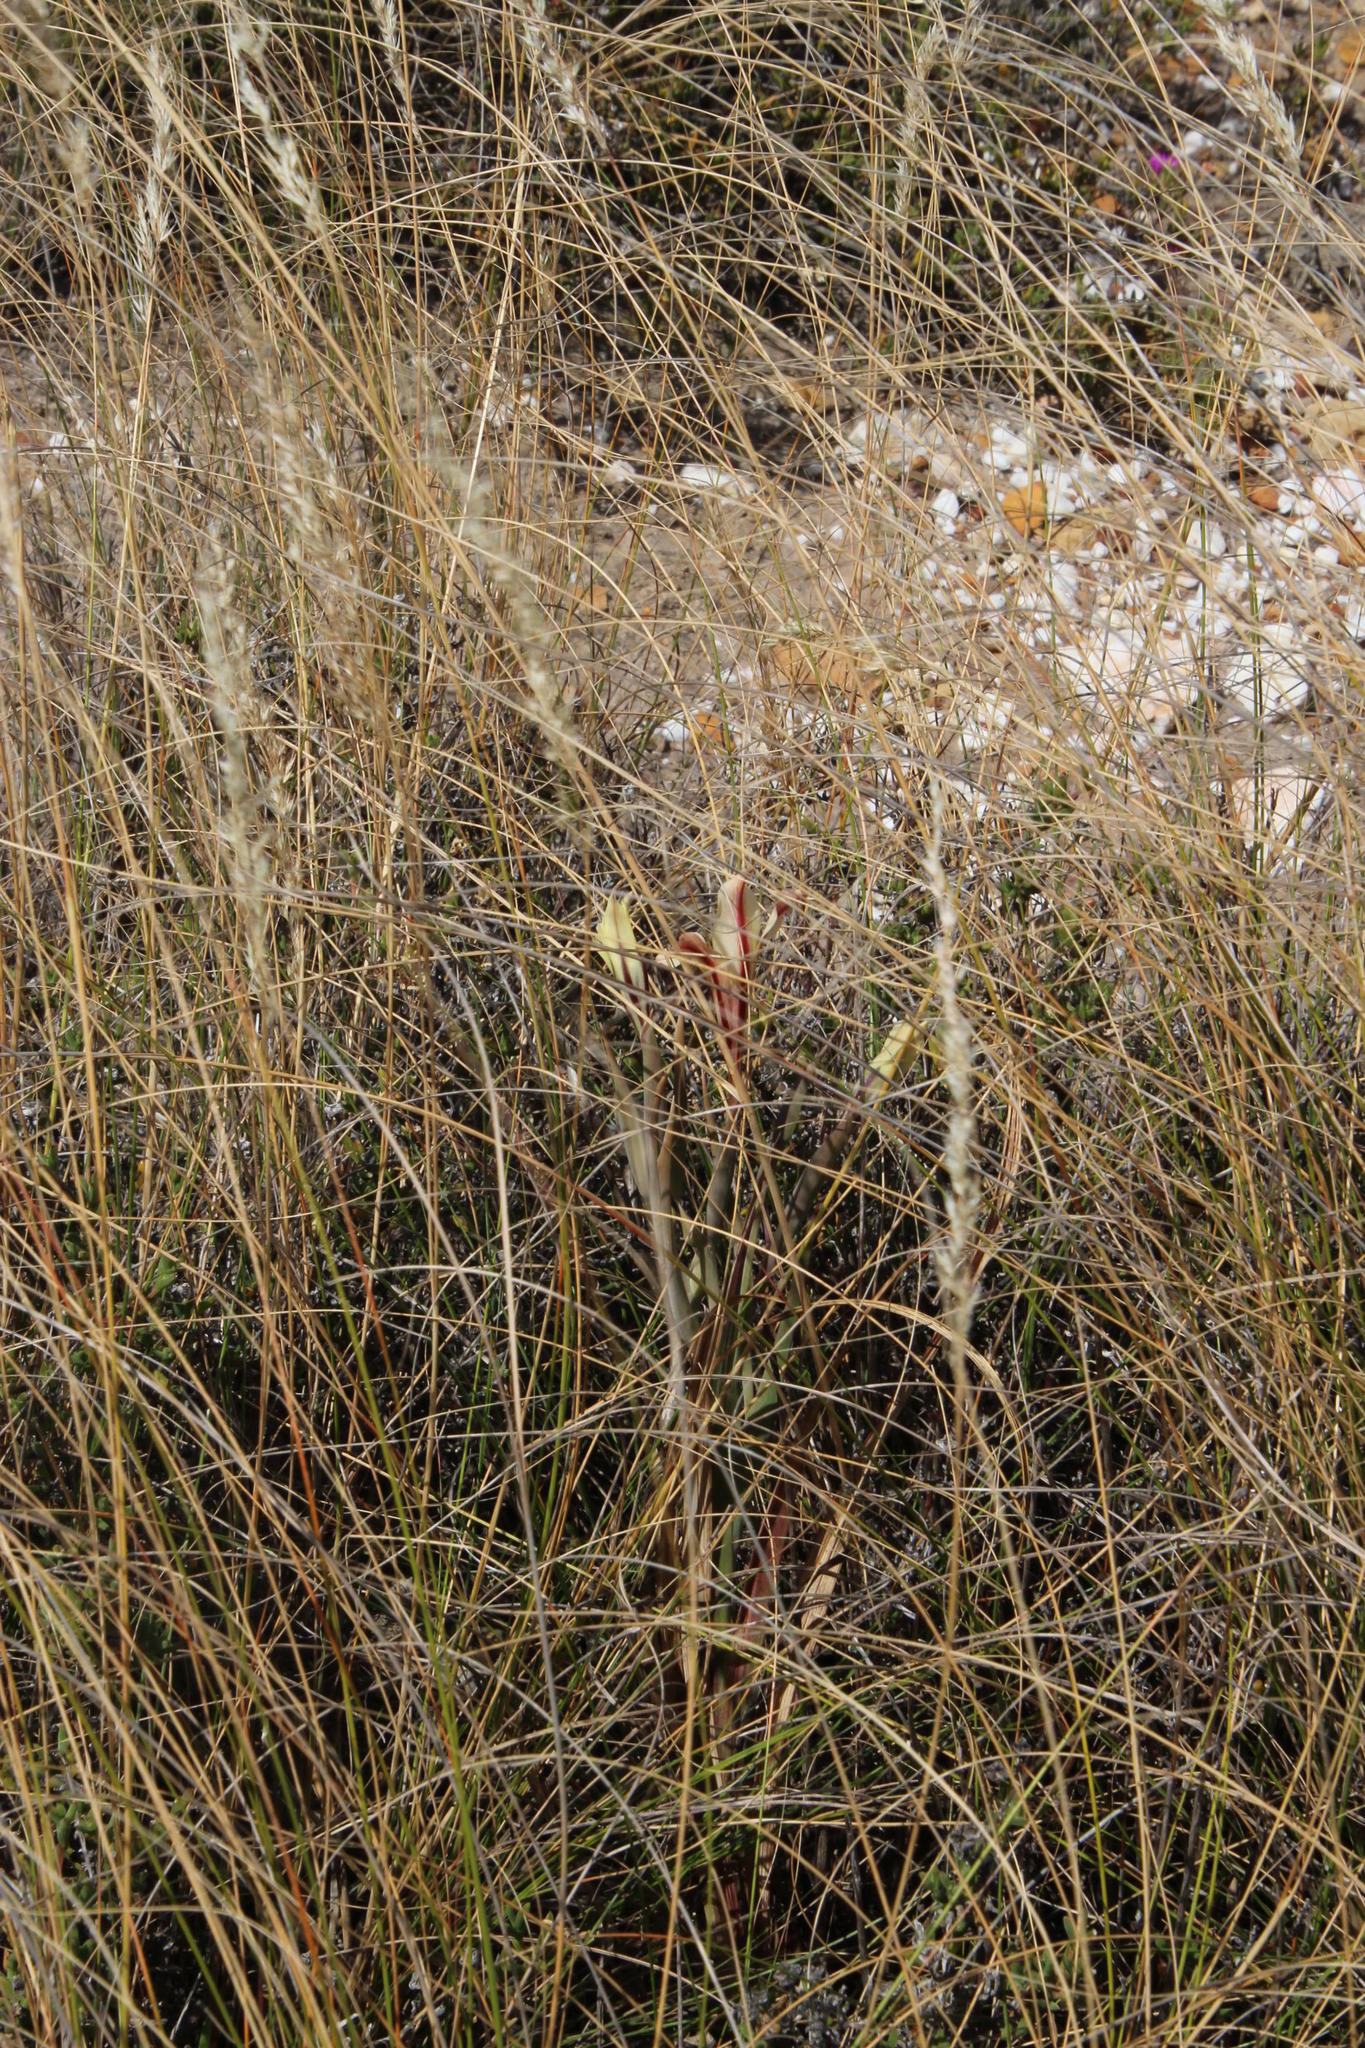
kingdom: Plantae
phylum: Tracheophyta
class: Liliopsida
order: Asparagales
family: Iridaceae
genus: Gladiolus
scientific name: Gladiolus floribundus
